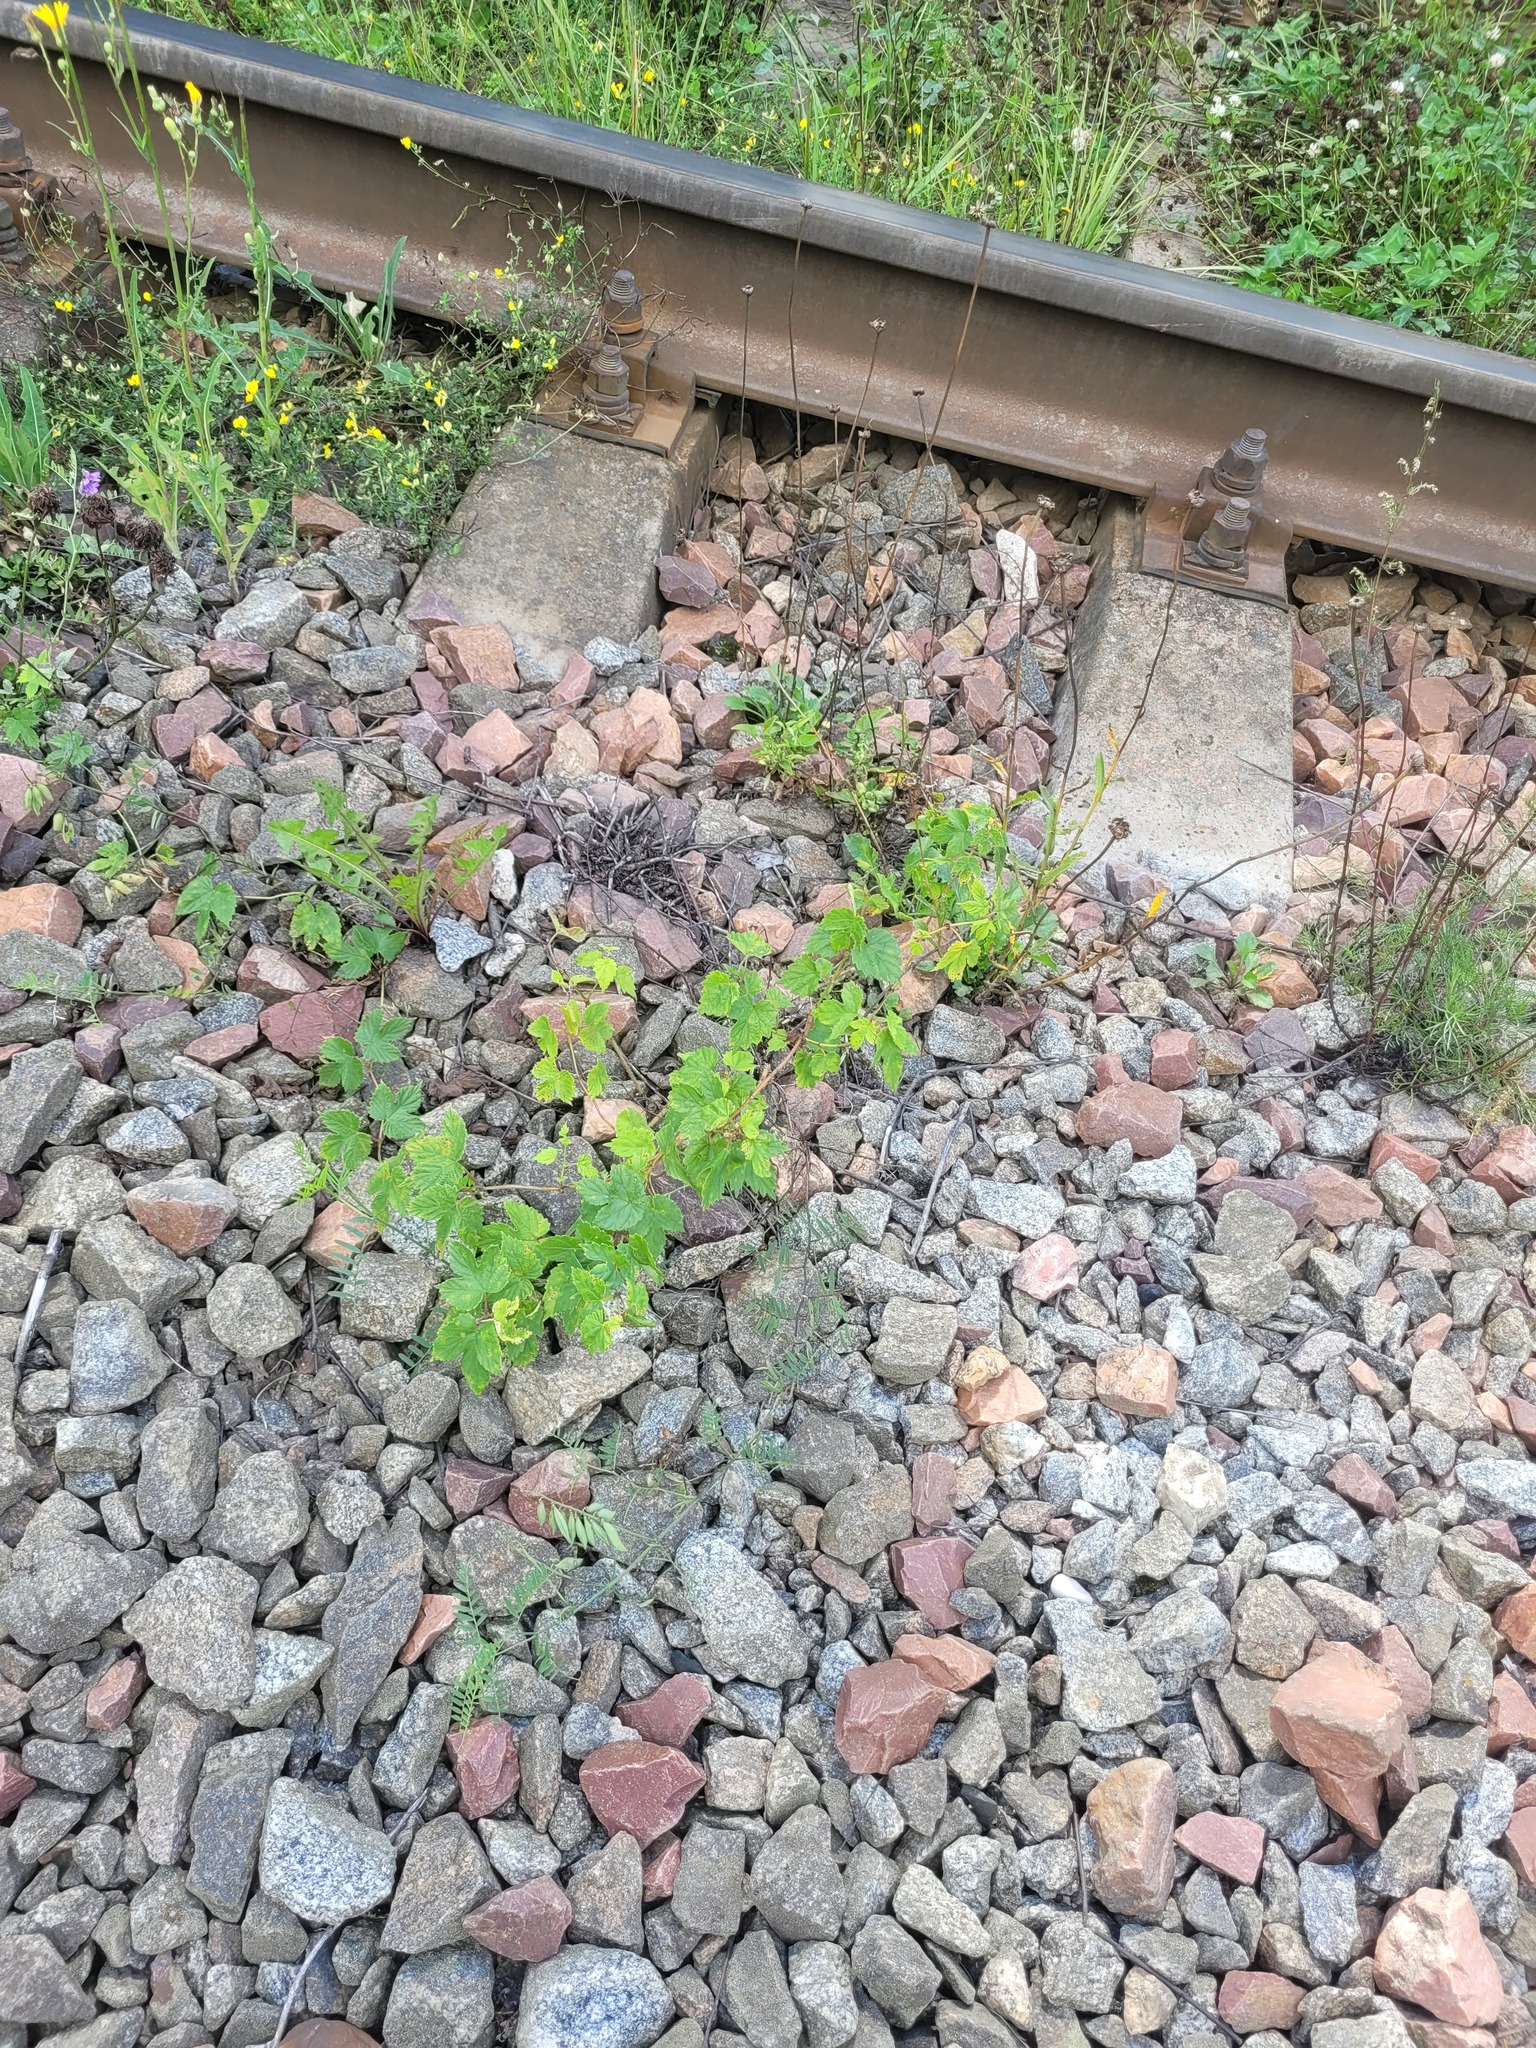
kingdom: Plantae
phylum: Tracheophyta
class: Magnoliopsida
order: Rosales
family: Cannabaceae
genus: Humulus
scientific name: Humulus lupulus
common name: Hop
